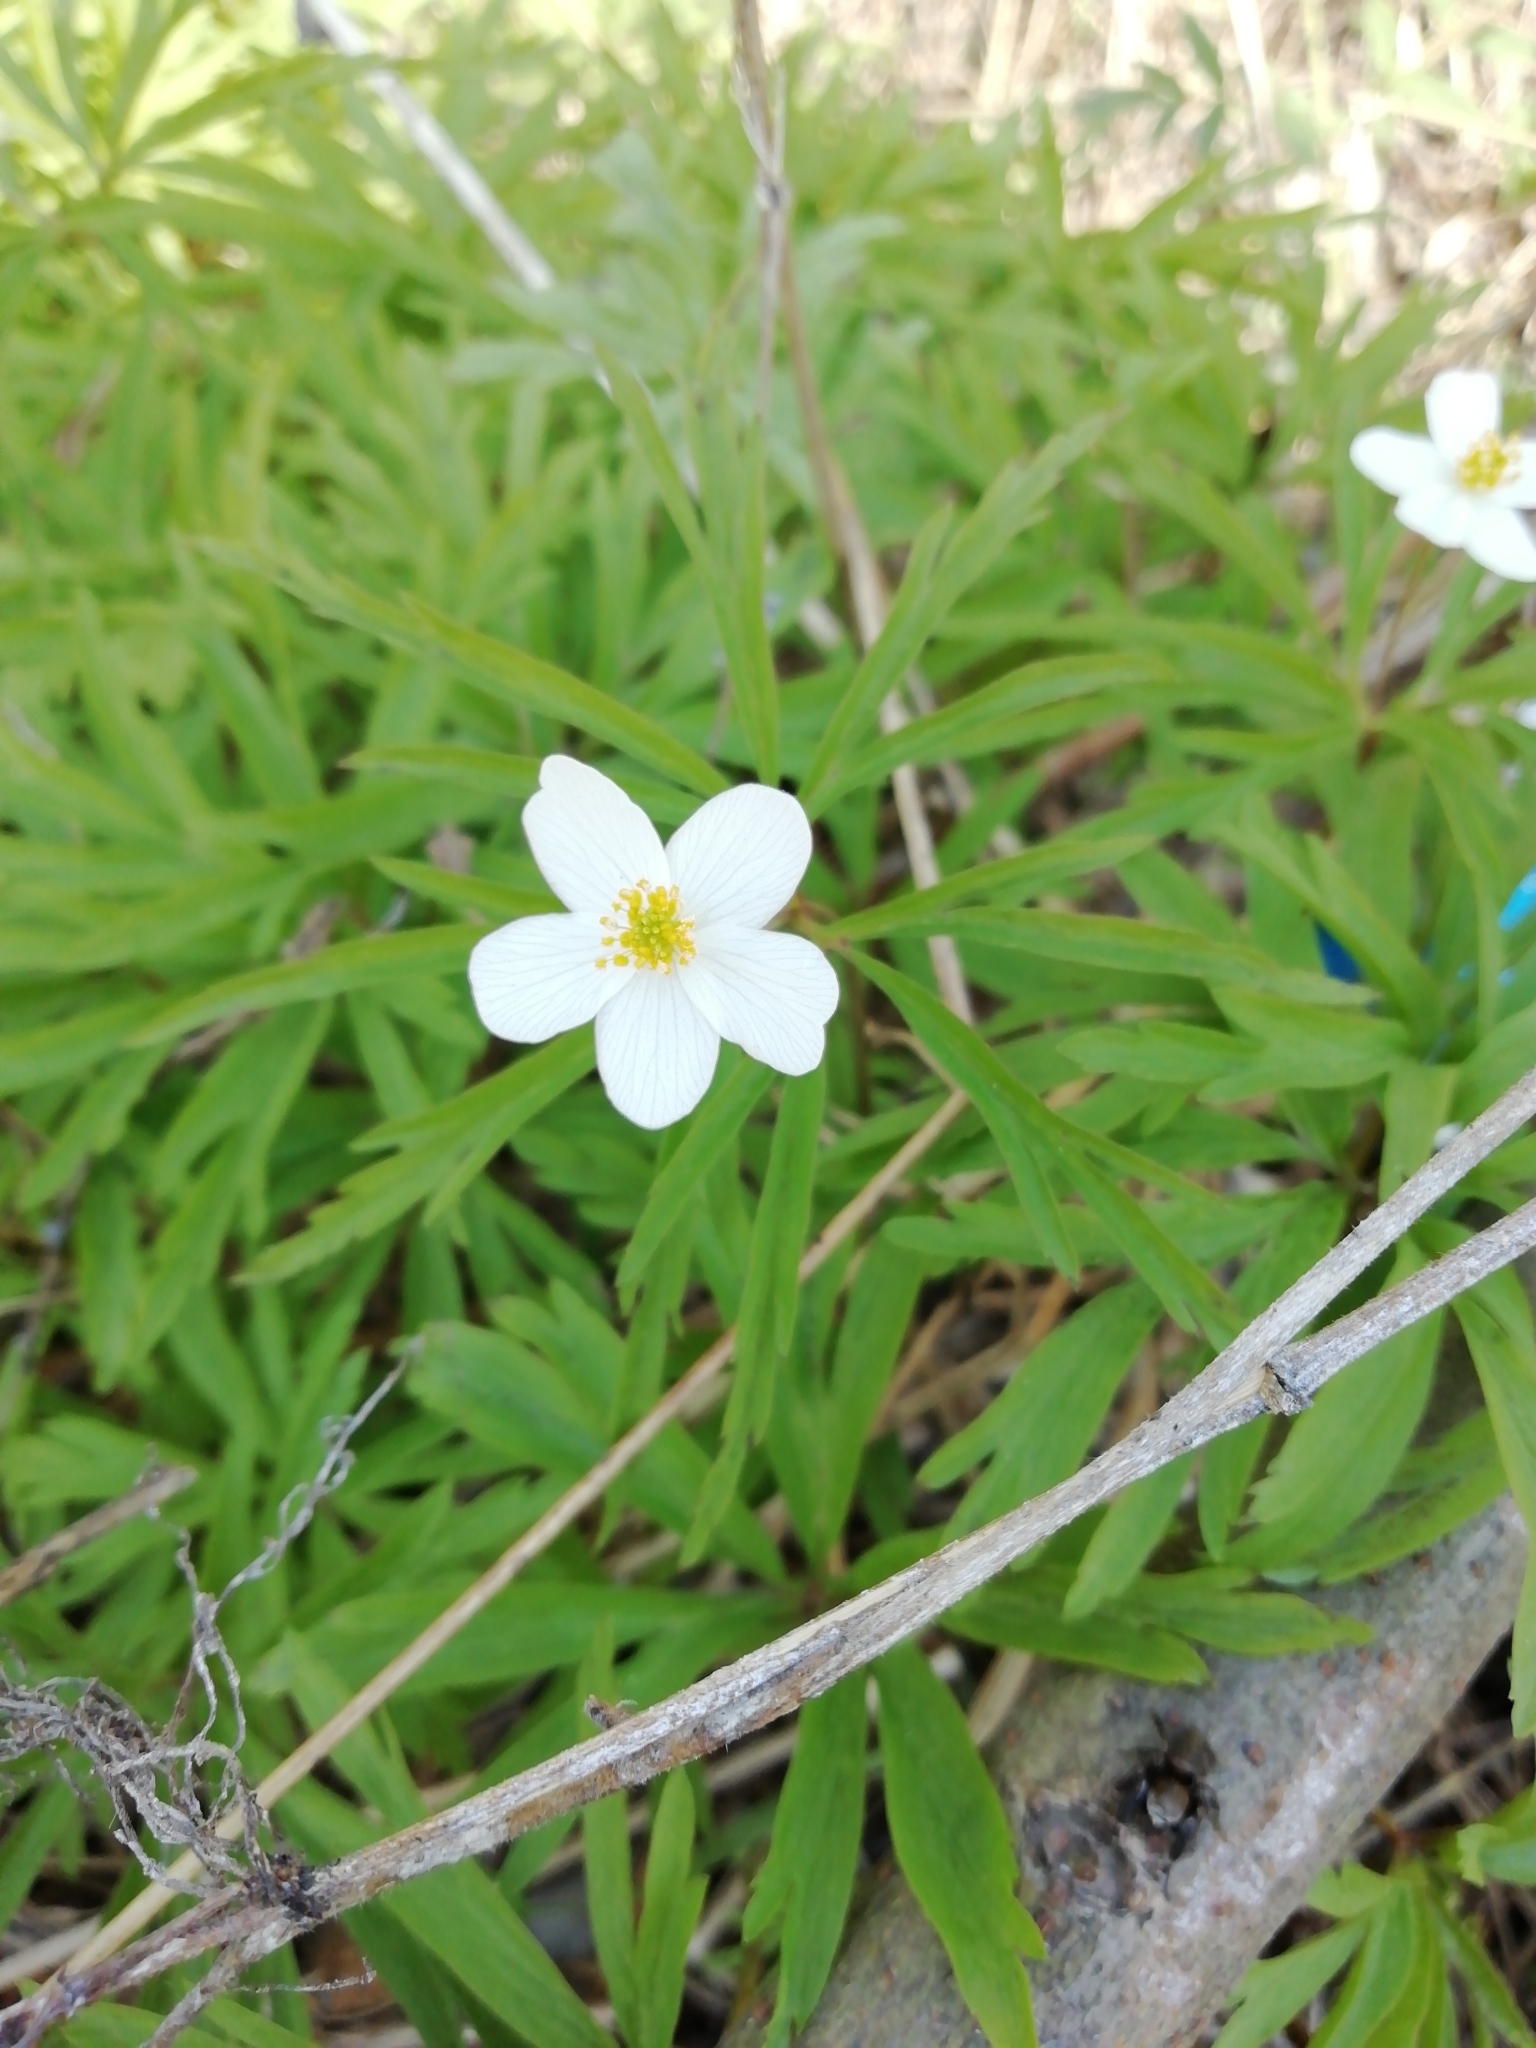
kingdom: Plantae
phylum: Tracheophyta
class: Magnoliopsida
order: Ranunculales
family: Ranunculaceae
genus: Anemone
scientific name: Anemone caerulea
